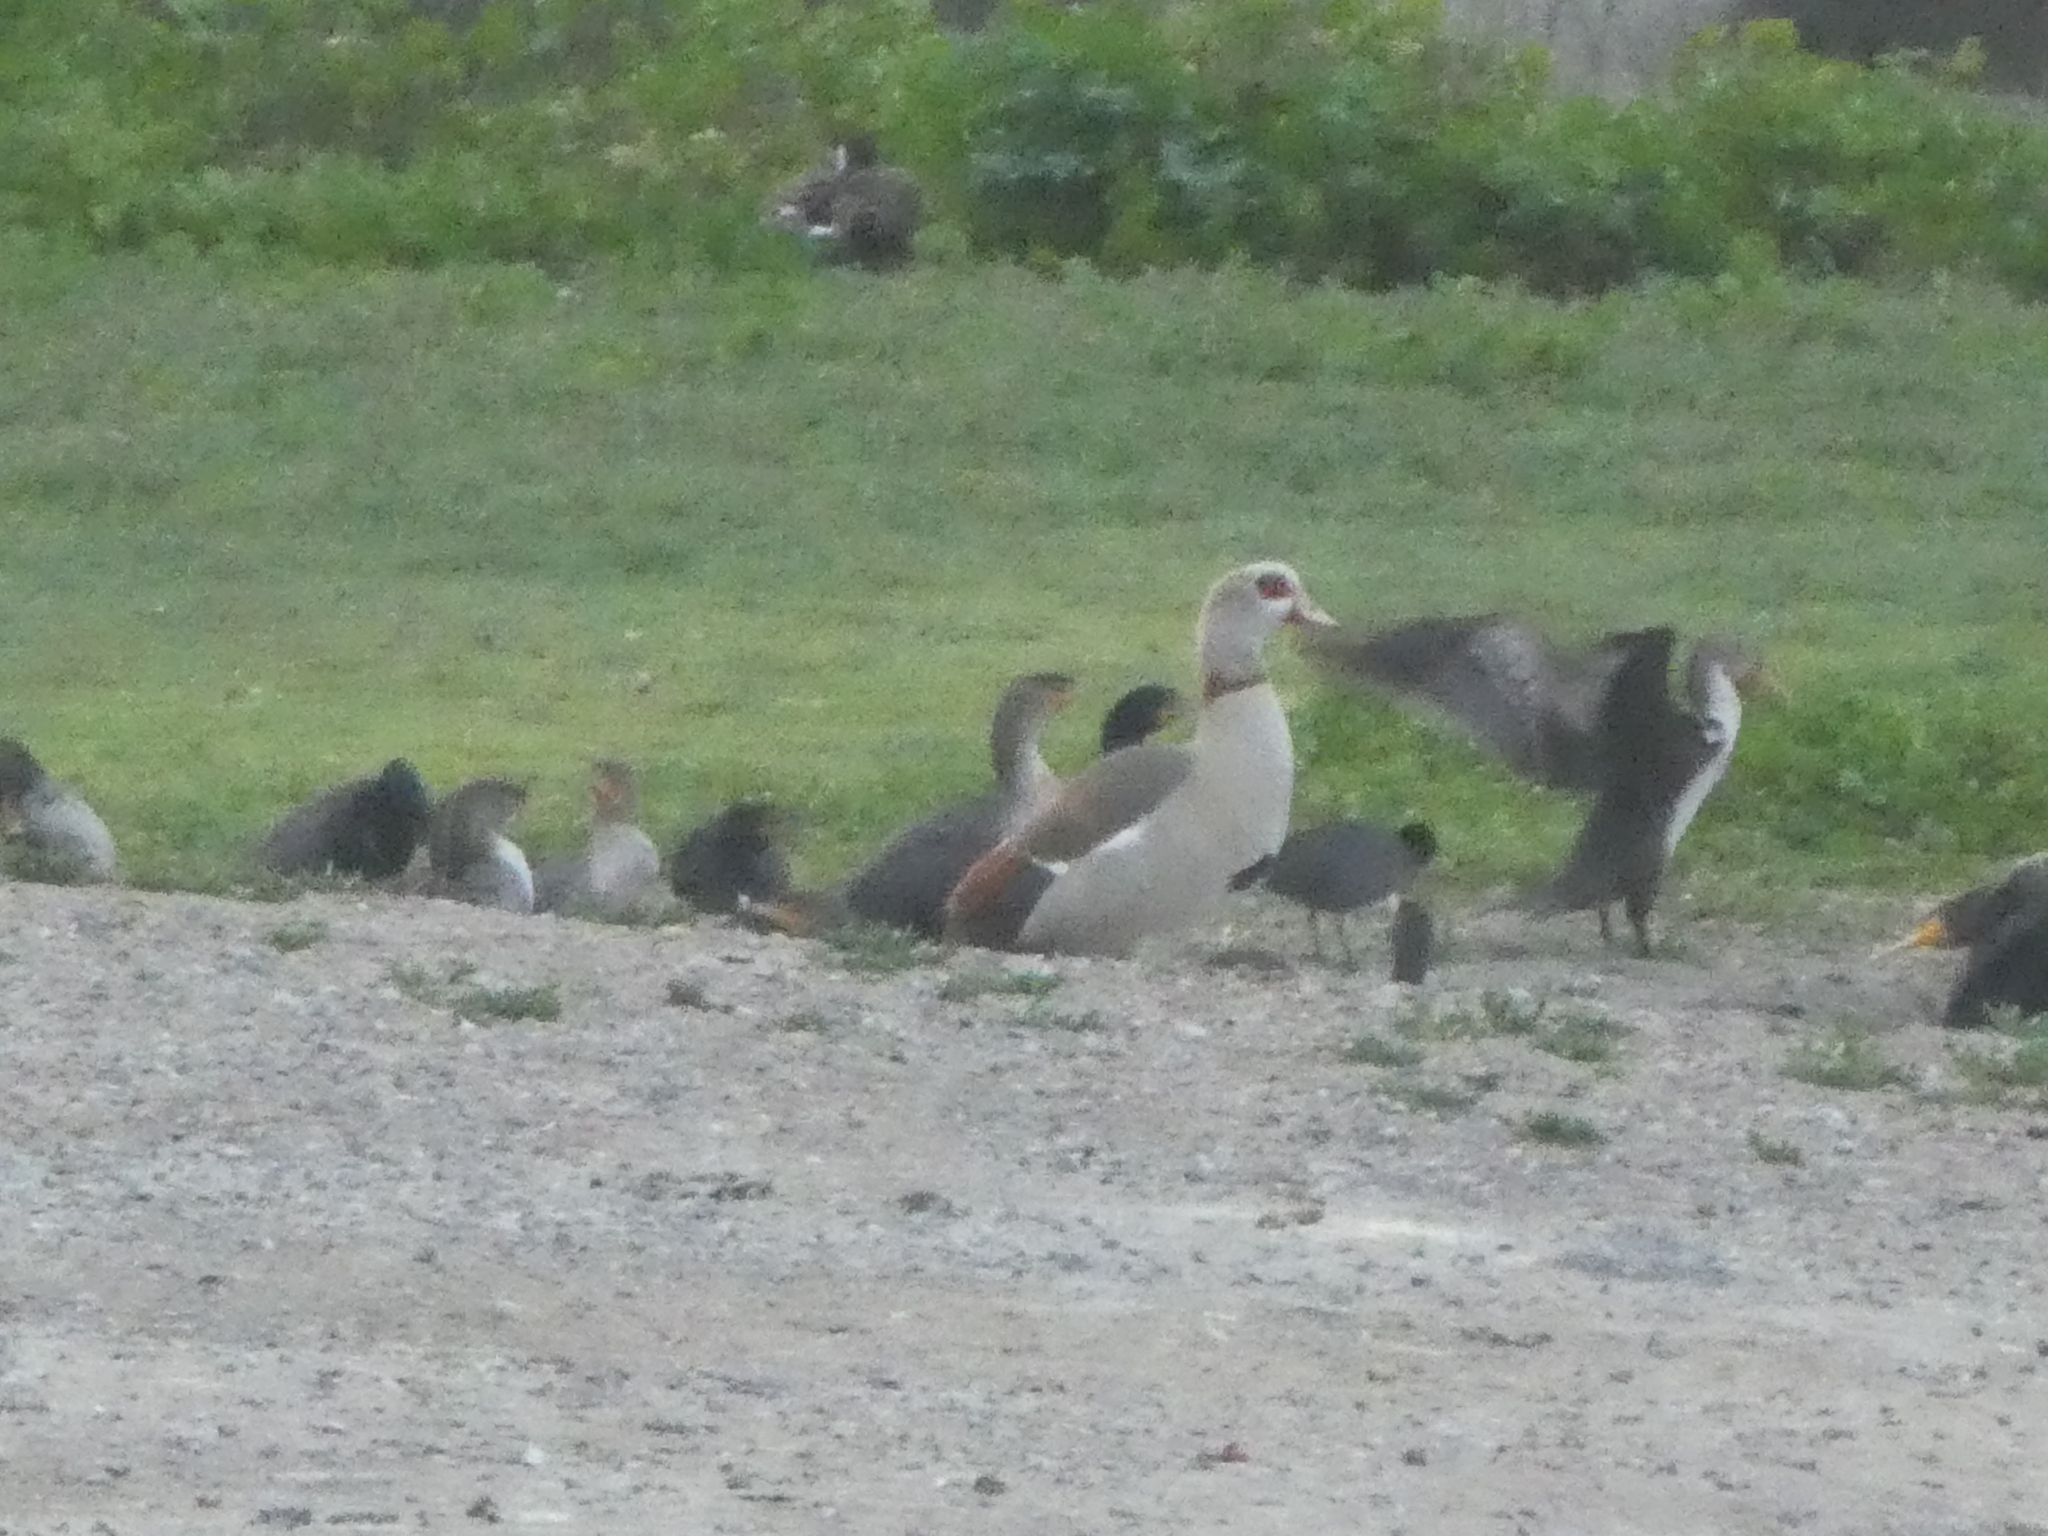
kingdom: Animalia
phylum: Chordata
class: Aves
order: Anseriformes
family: Anatidae
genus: Alopochen
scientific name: Alopochen aegyptiaca
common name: Egyptian goose
